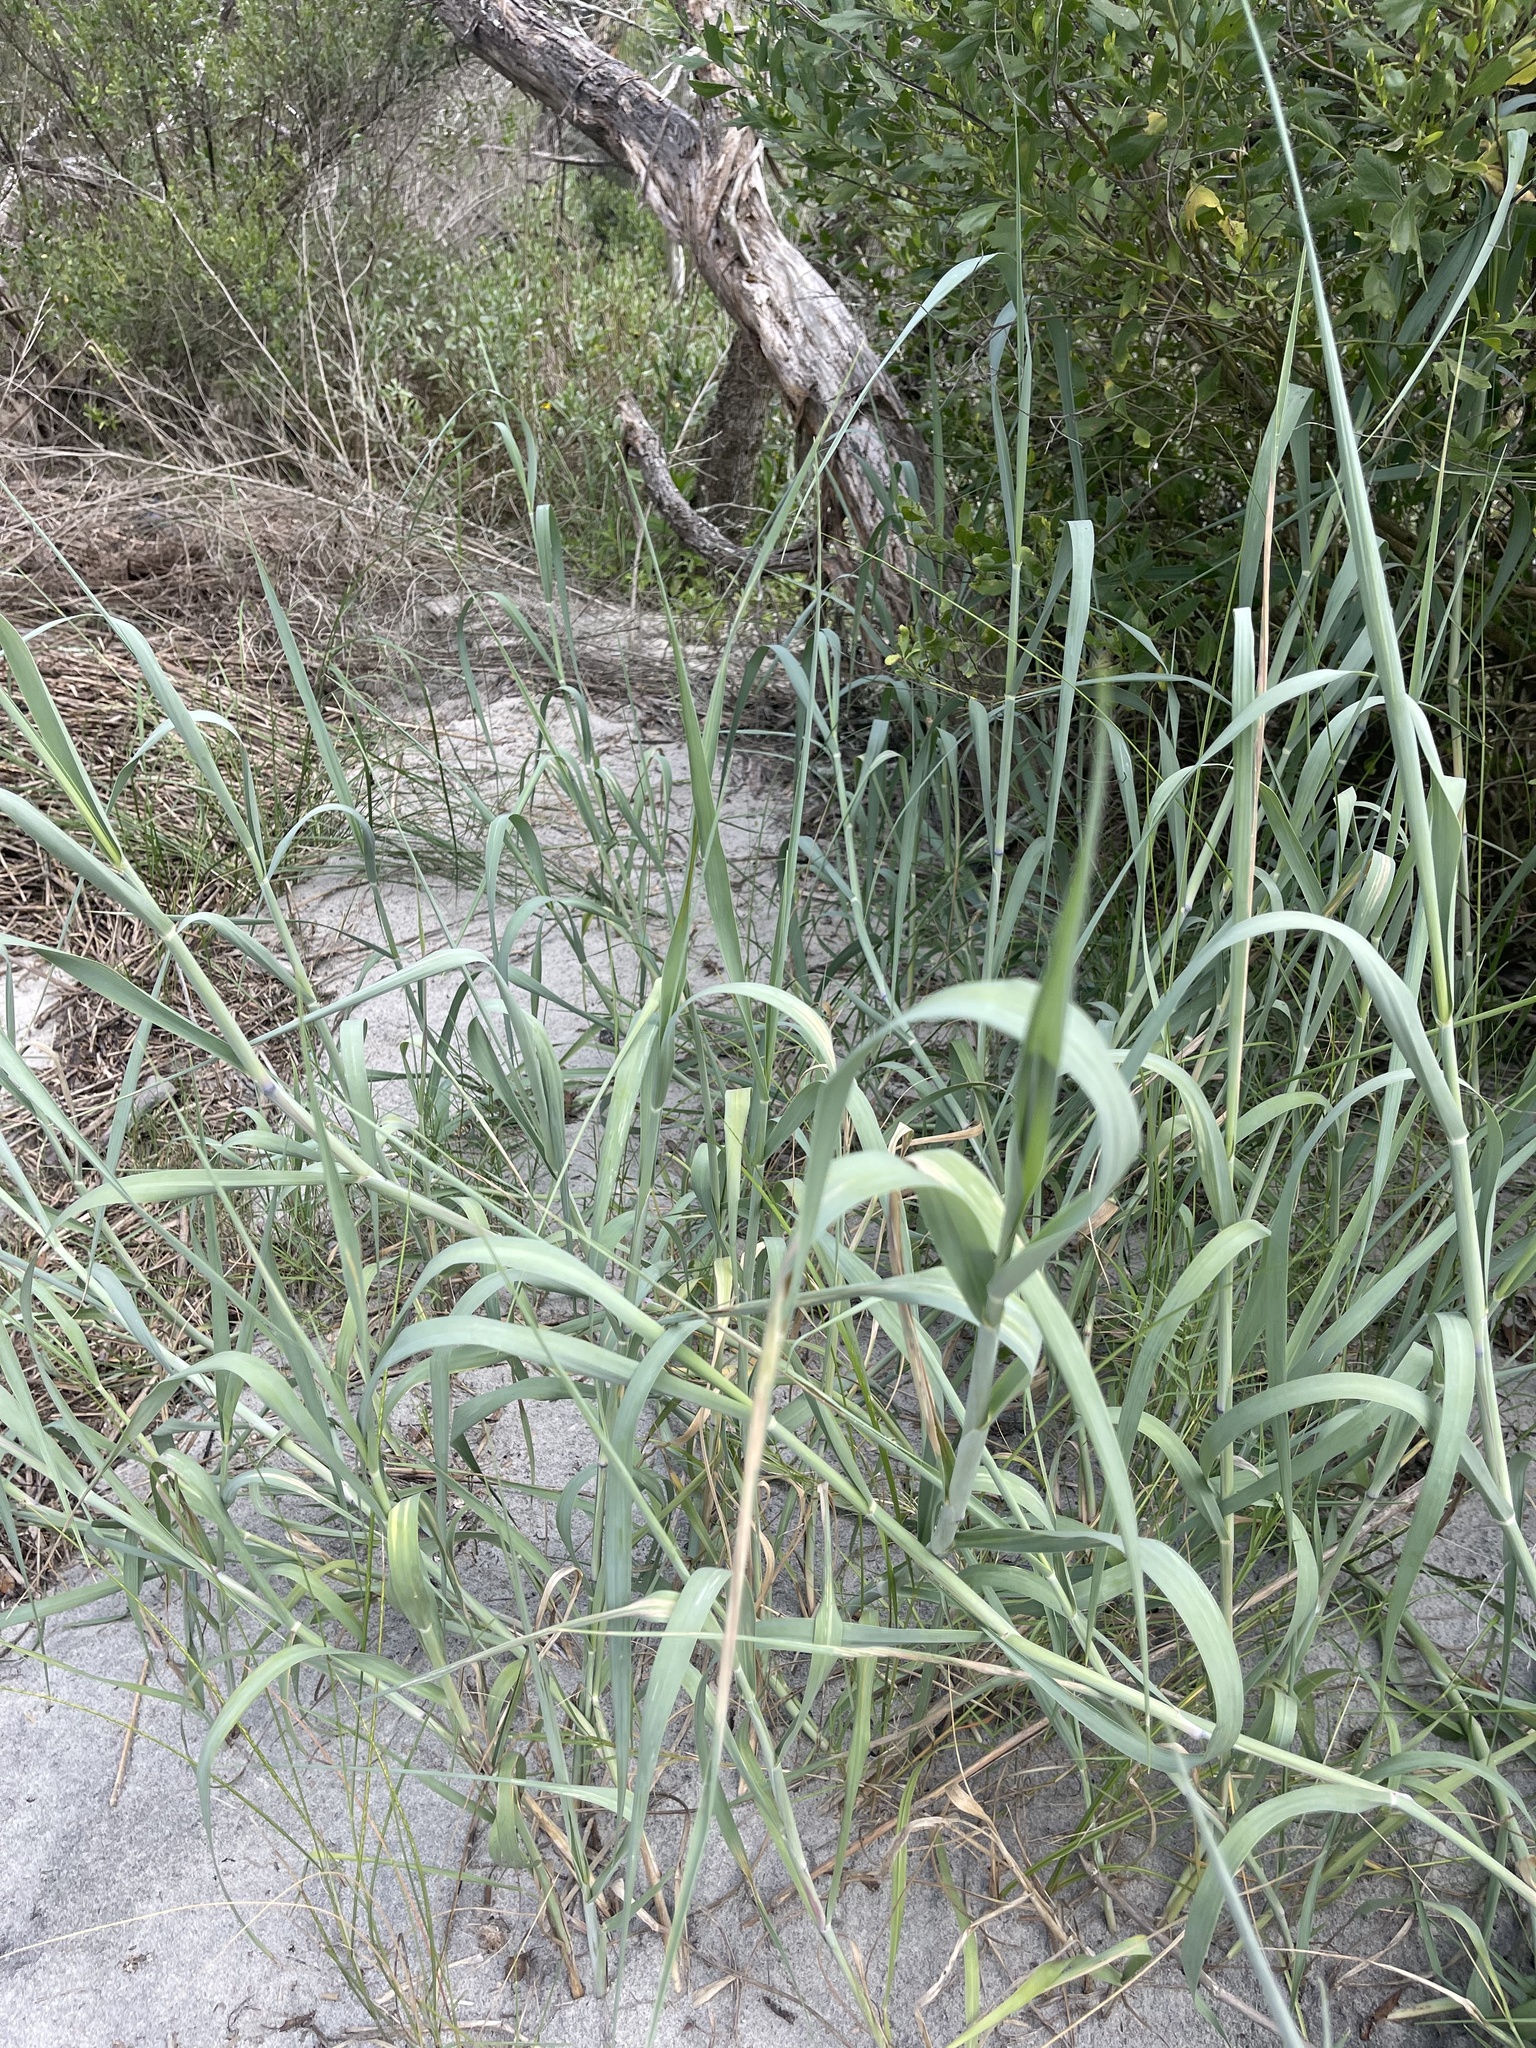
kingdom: Plantae
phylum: Tracheophyta
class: Liliopsida
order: Poales
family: Poaceae
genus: Panicum
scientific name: Panicum amarum
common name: Bitter panicum
